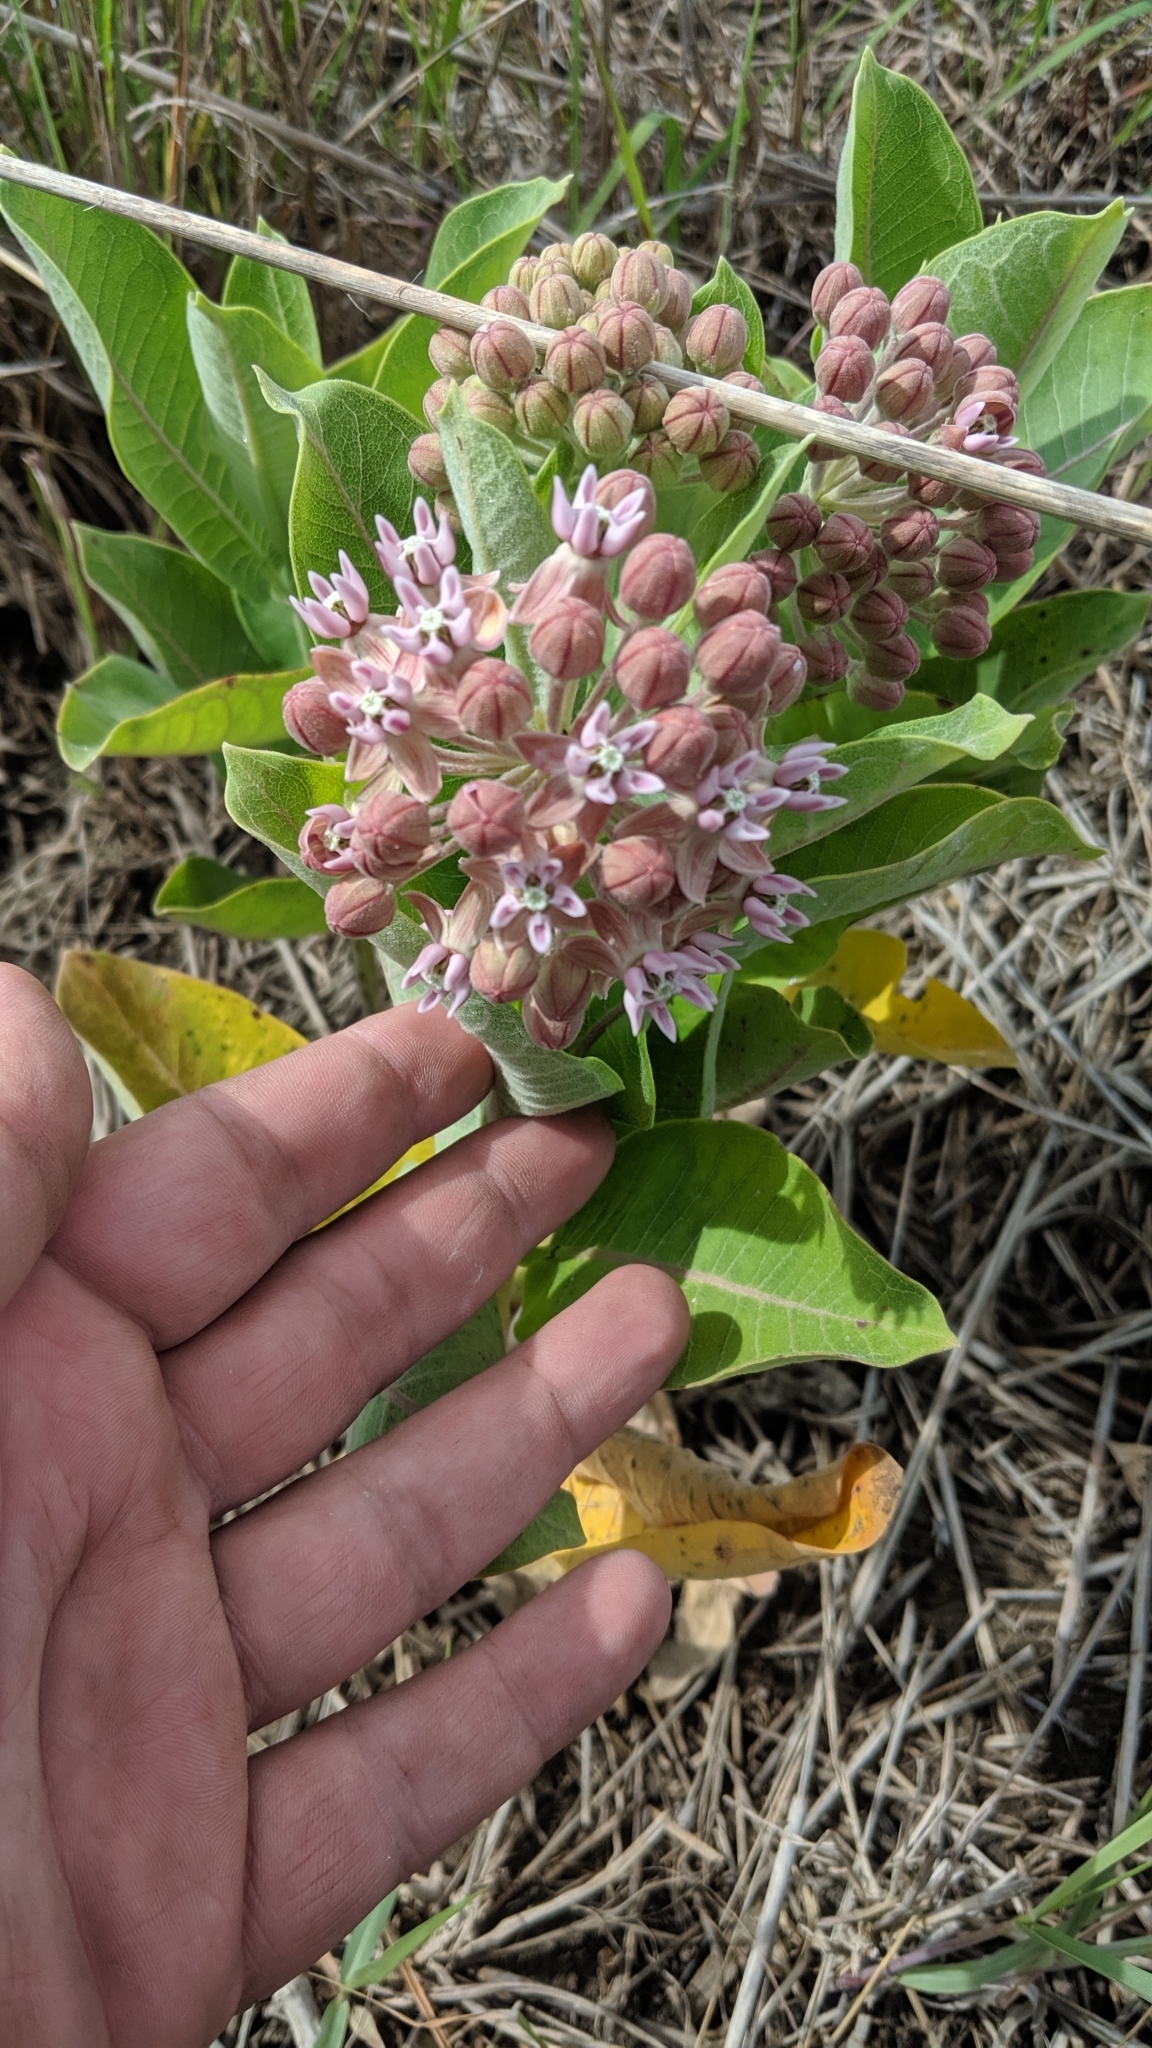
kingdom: Plantae
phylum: Tracheophyta
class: Magnoliopsida
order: Gentianales
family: Apocynaceae
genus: Asclepias
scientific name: Asclepias
